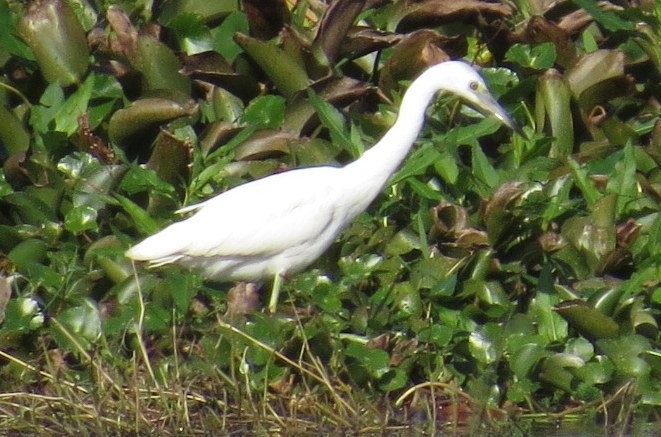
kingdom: Animalia
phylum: Chordata
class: Aves
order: Pelecaniformes
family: Ardeidae
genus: Egretta
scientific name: Egretta caerulea
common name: Little blue heron
